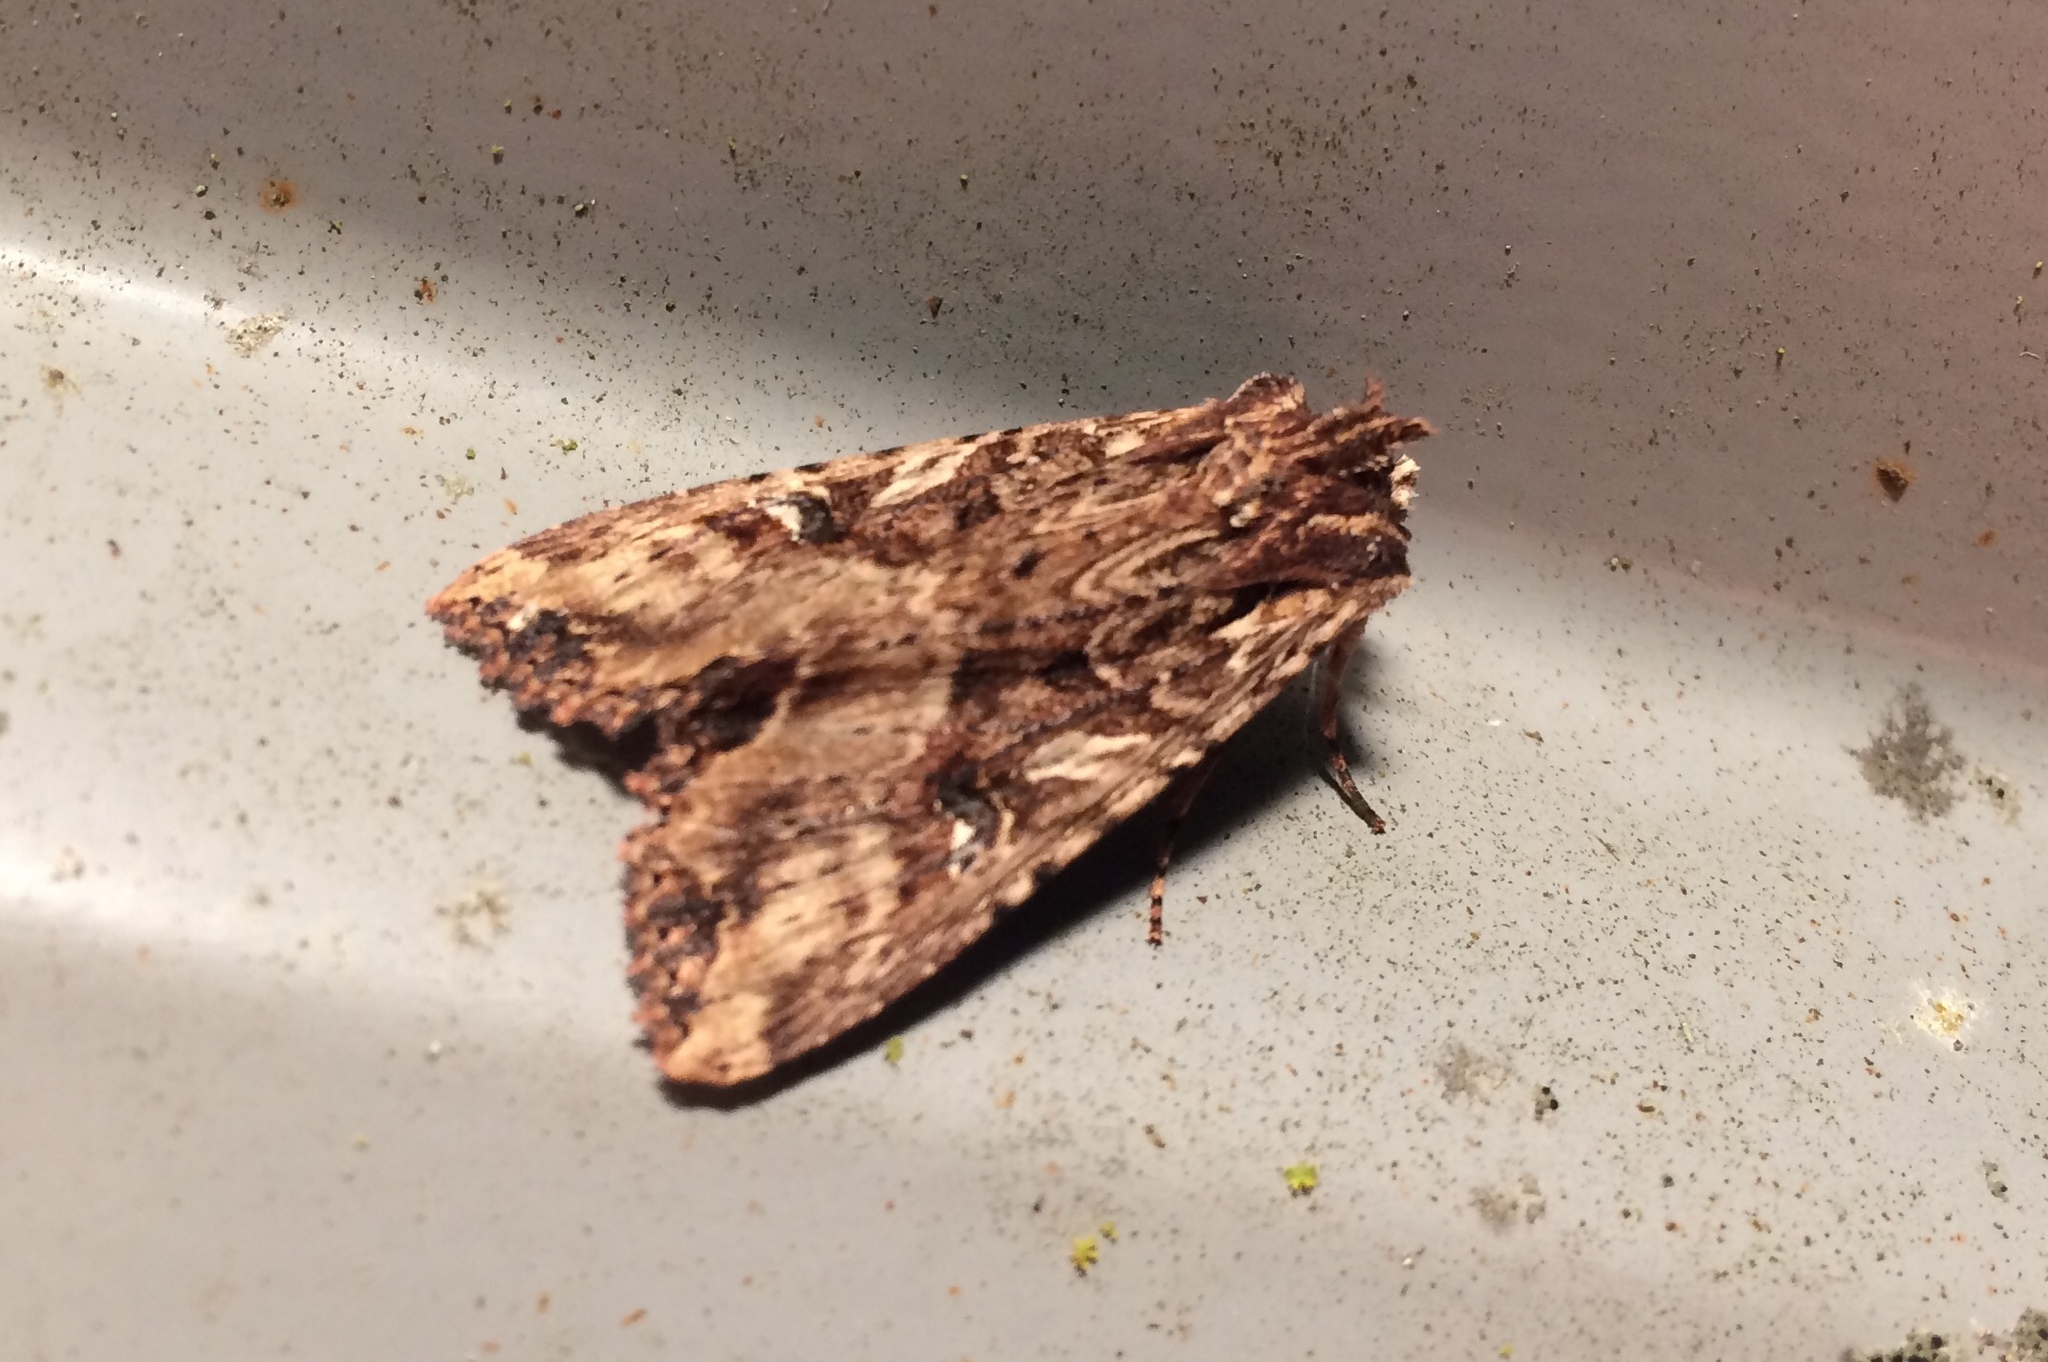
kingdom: Animalia
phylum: Arthropoda
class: Insecta
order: Lepidoptera
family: Noctuidae
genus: Meterana
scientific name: Meterana stipata
